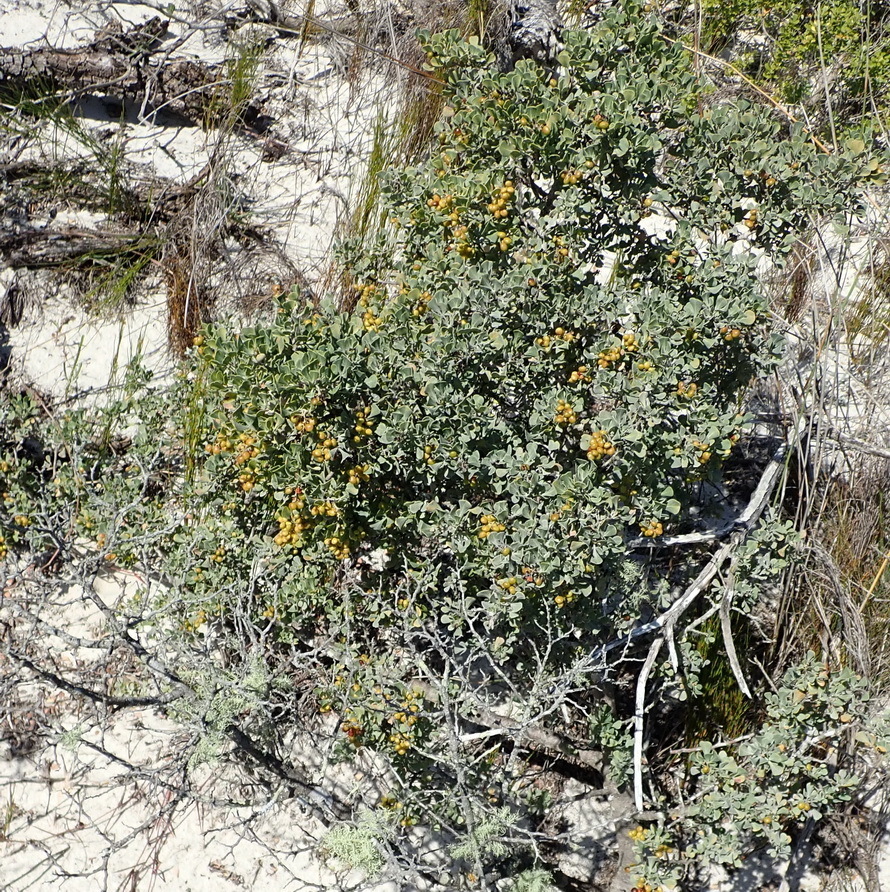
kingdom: Plantae
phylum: Tracheophyta
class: Magnoliopsida
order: Sapindales
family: Anacardiaceae
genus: Searsia
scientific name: Searsia glauca
